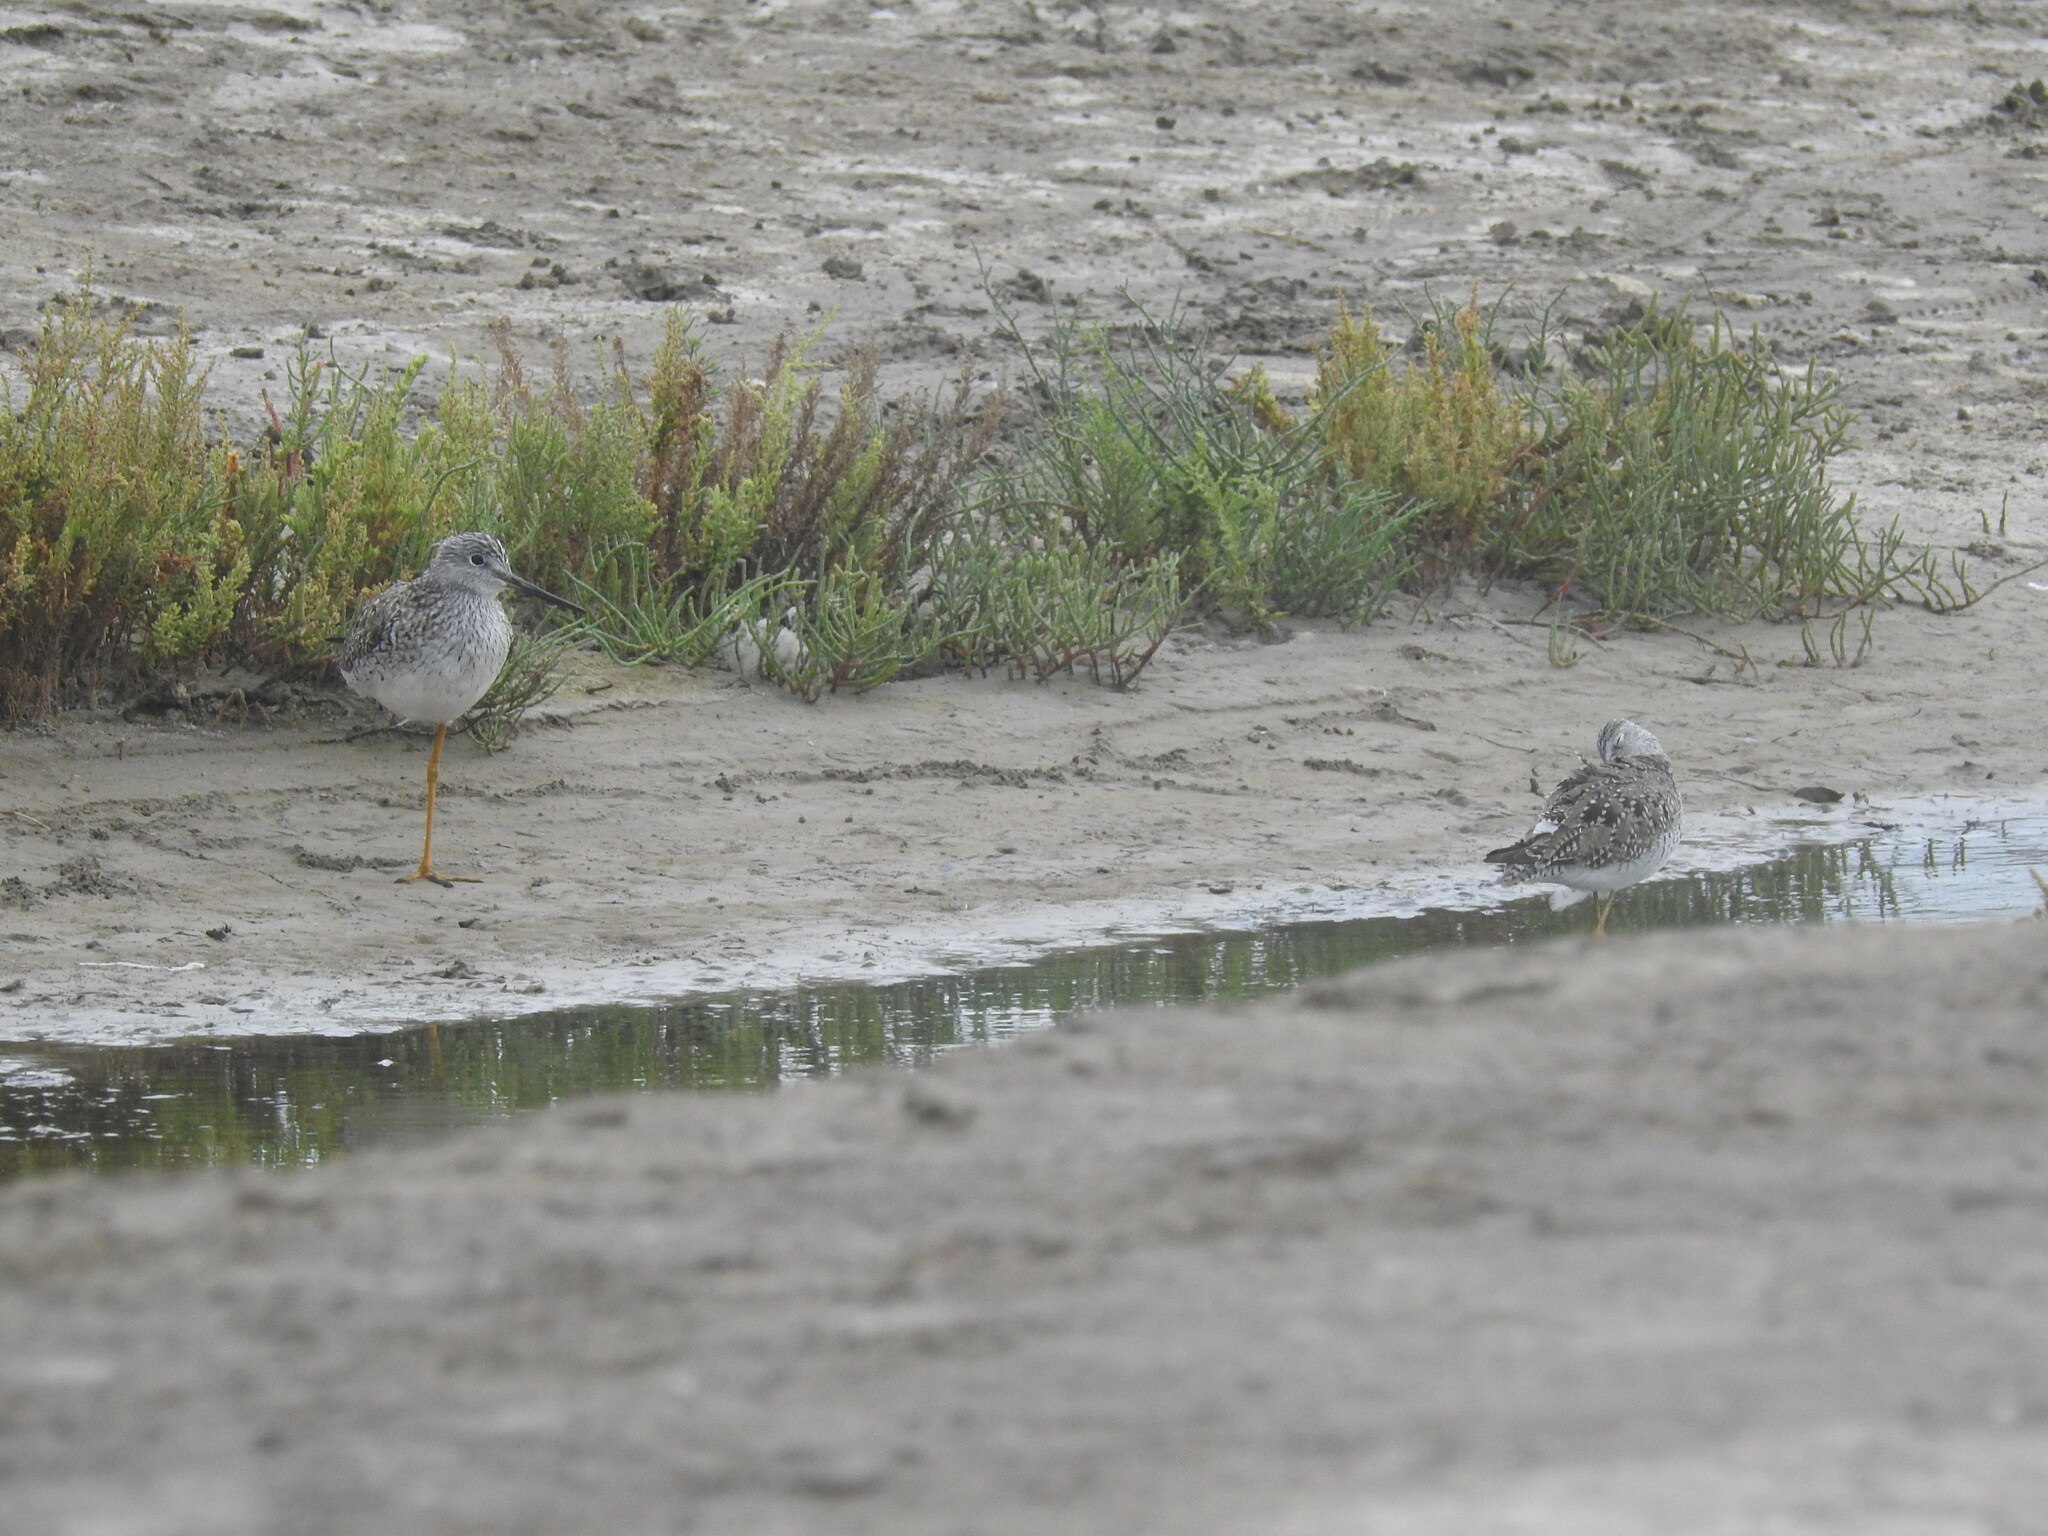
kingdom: Animalia
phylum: Chordata
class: Aves
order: Charadriiformes
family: Scolopacidae
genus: Tringa
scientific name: Tringa melanoleuca
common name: Greater yellowlegs
